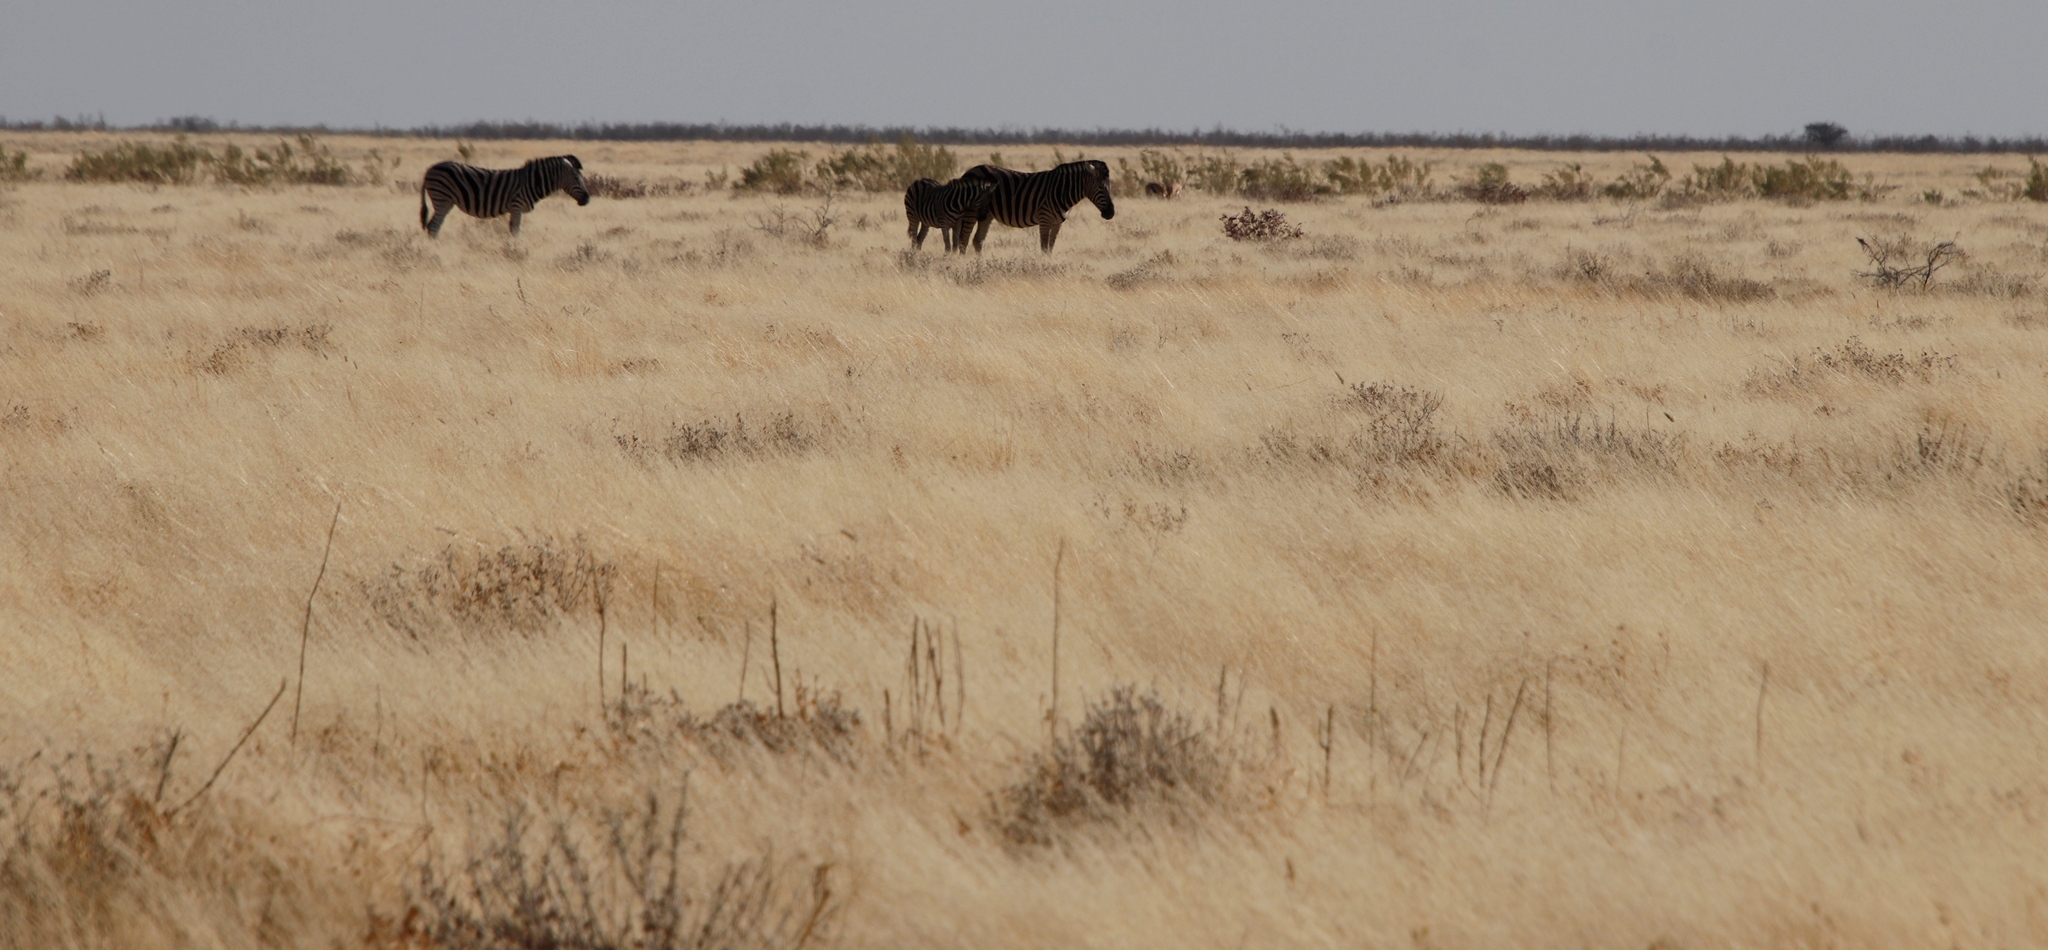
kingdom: Animalia
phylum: Chordata
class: Mammalia
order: Perissodactyla
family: Equidae
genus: Equus
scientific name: Equus quagga
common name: Plains zebra
